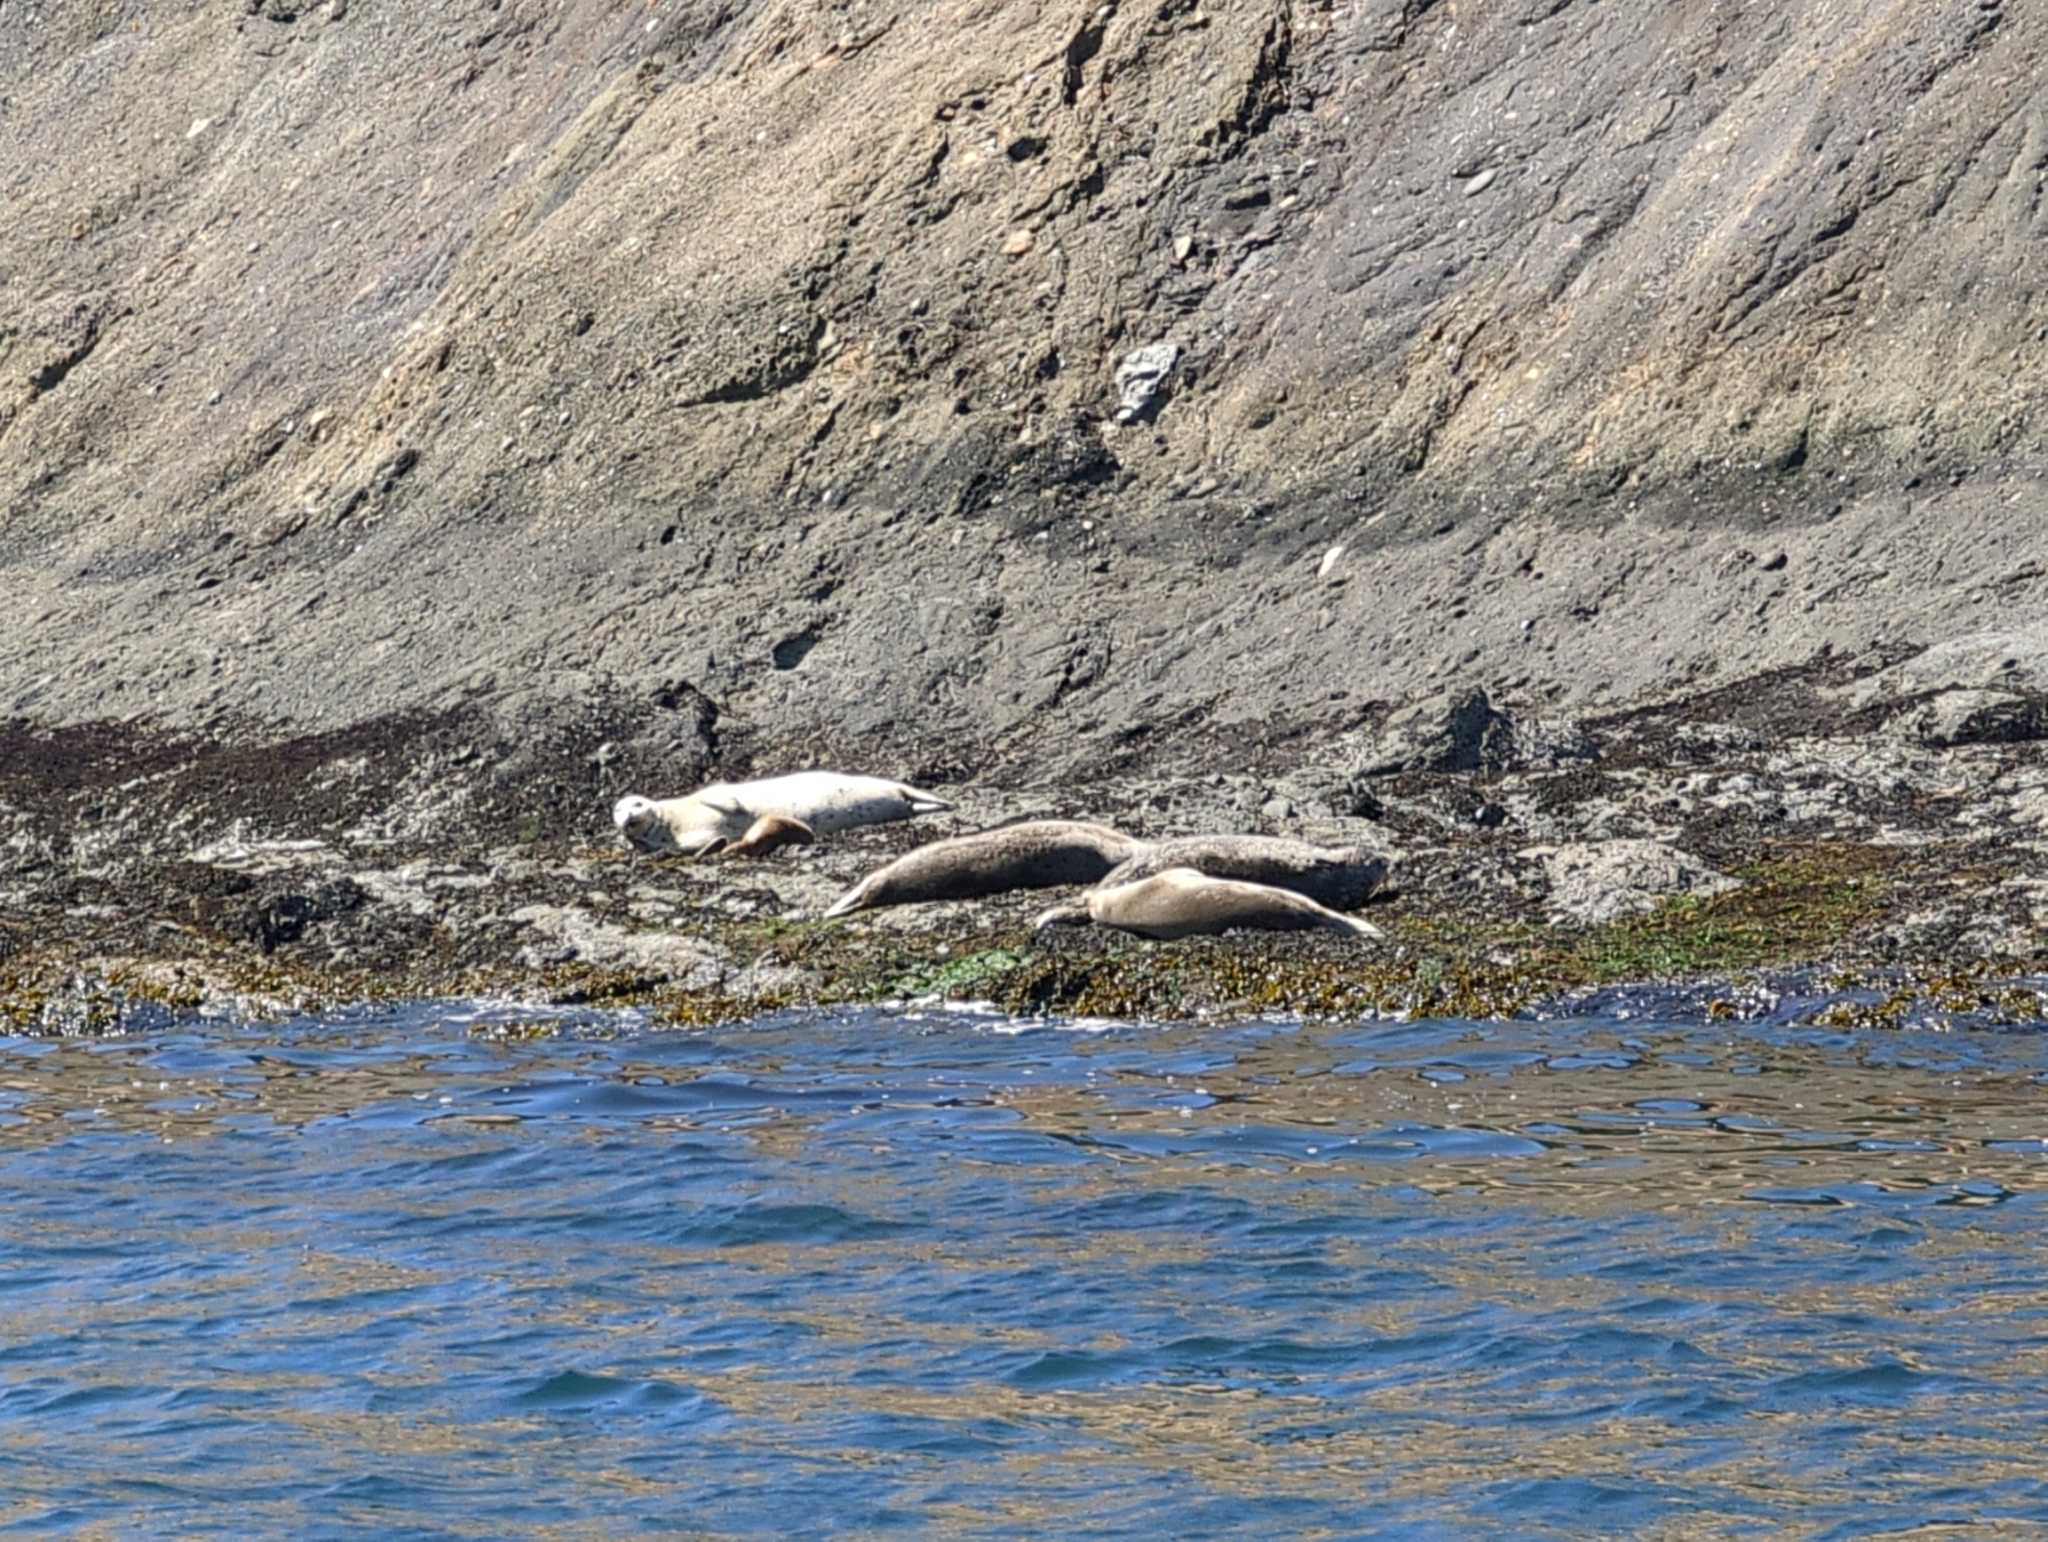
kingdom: Animalia
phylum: Chordata
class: Mammalia
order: Carnivora
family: Phocidae
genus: Phoca
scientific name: Phoca vitulina
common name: Harbor seal
